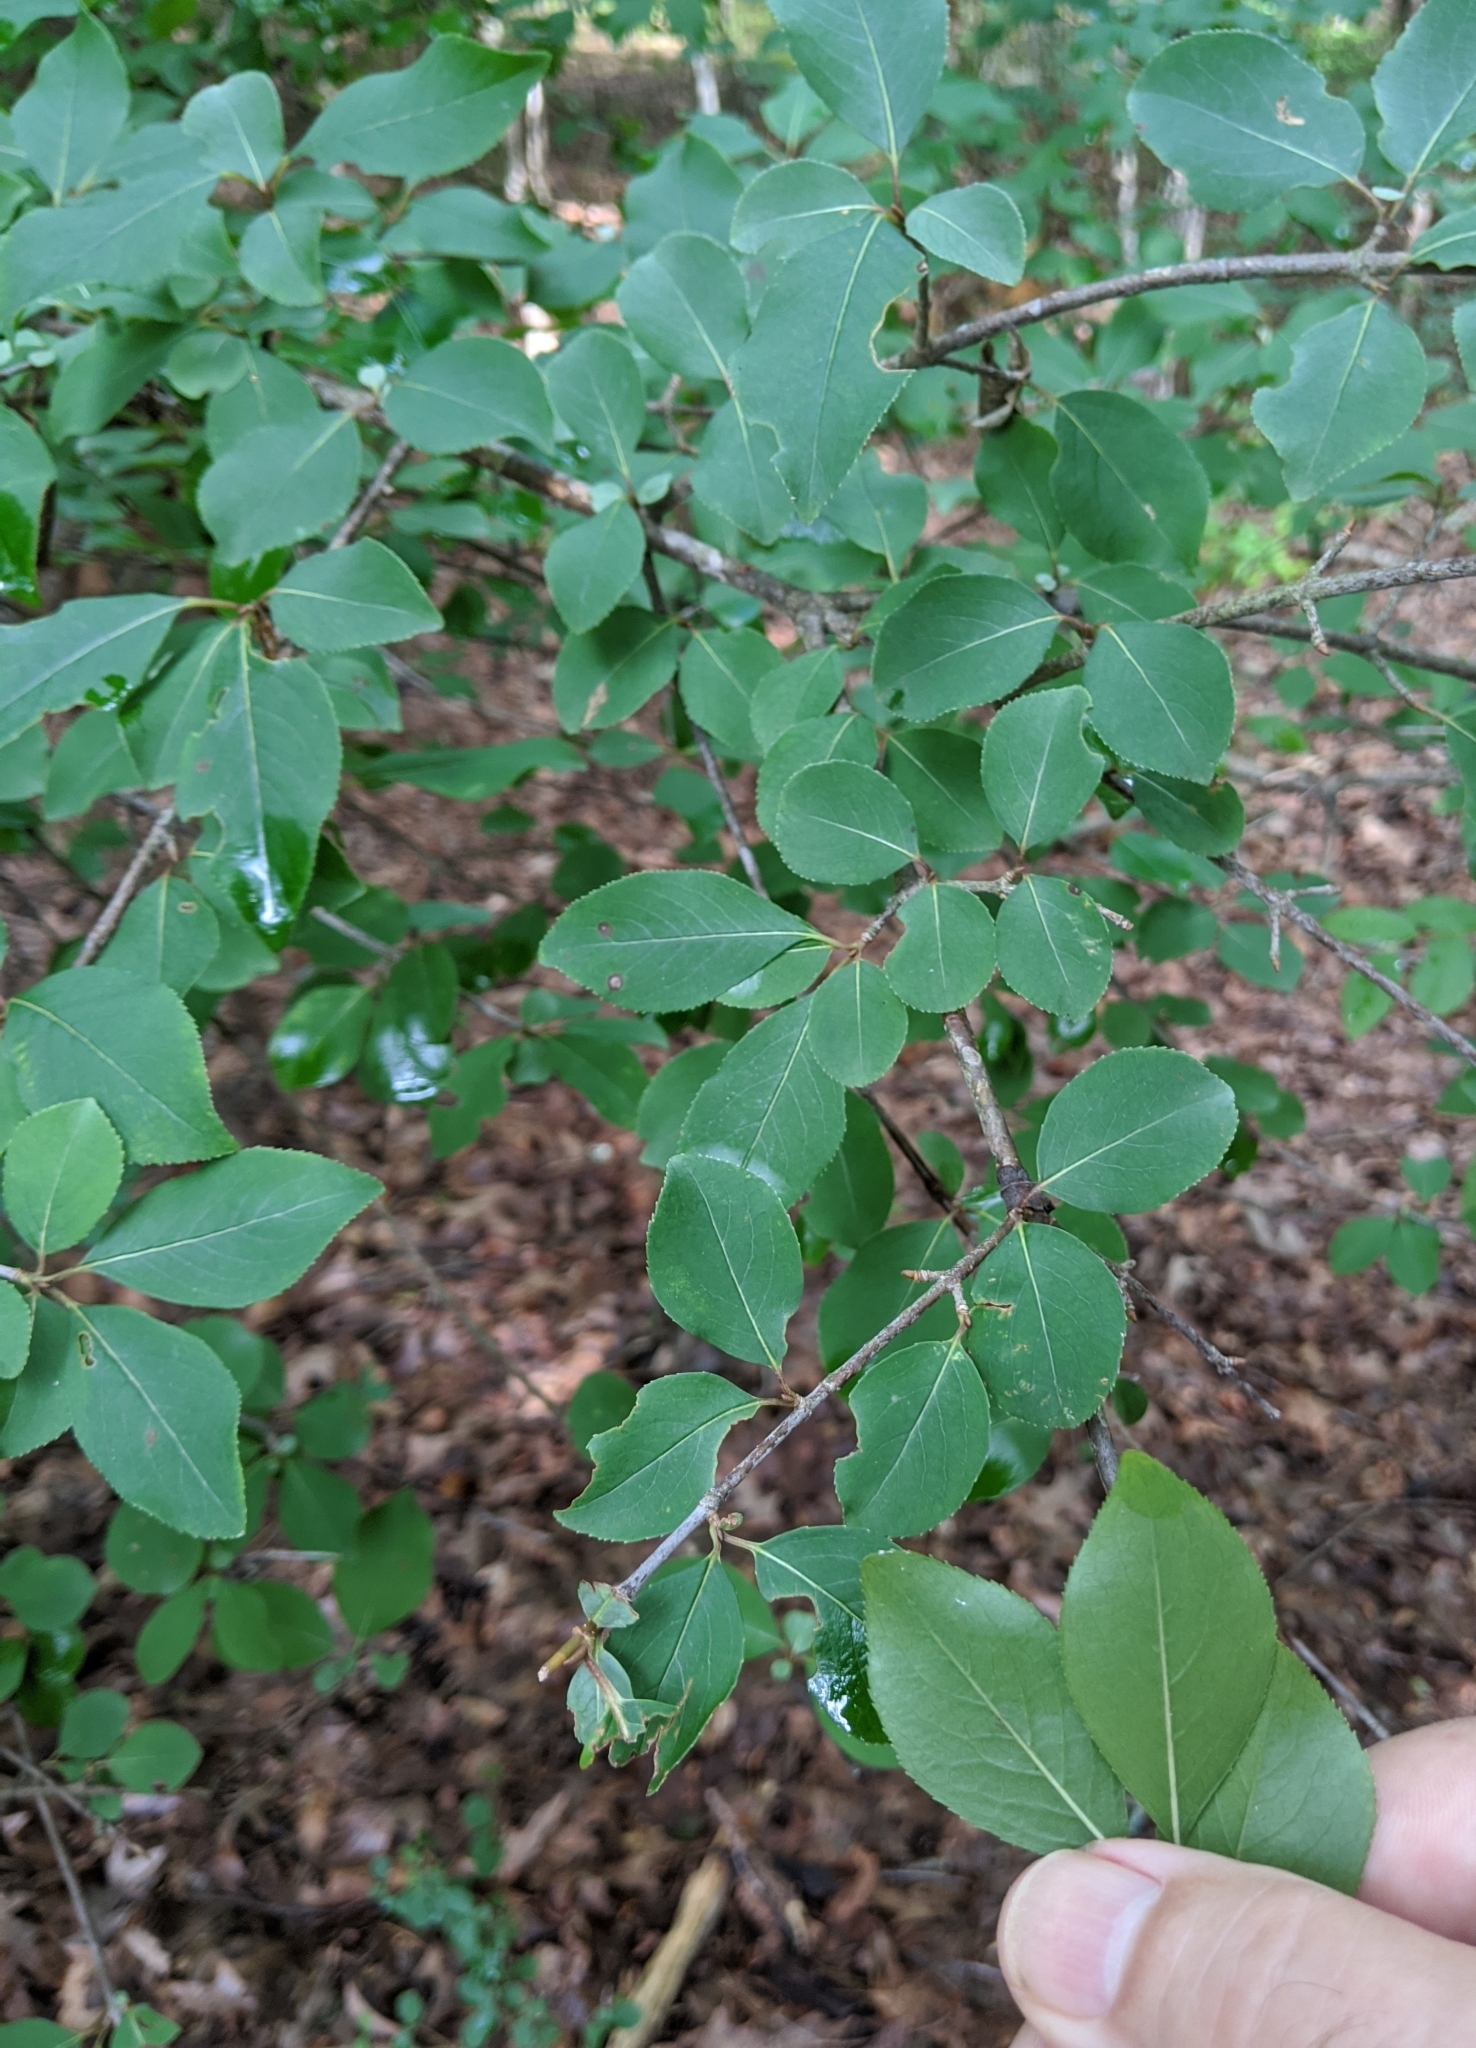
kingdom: Plantae
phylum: Tracheophyta
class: Magnoliopsida
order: Dipsacales
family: Viburnaceae
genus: Viburnum
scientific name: Viburnum prunifolium
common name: Black haw
